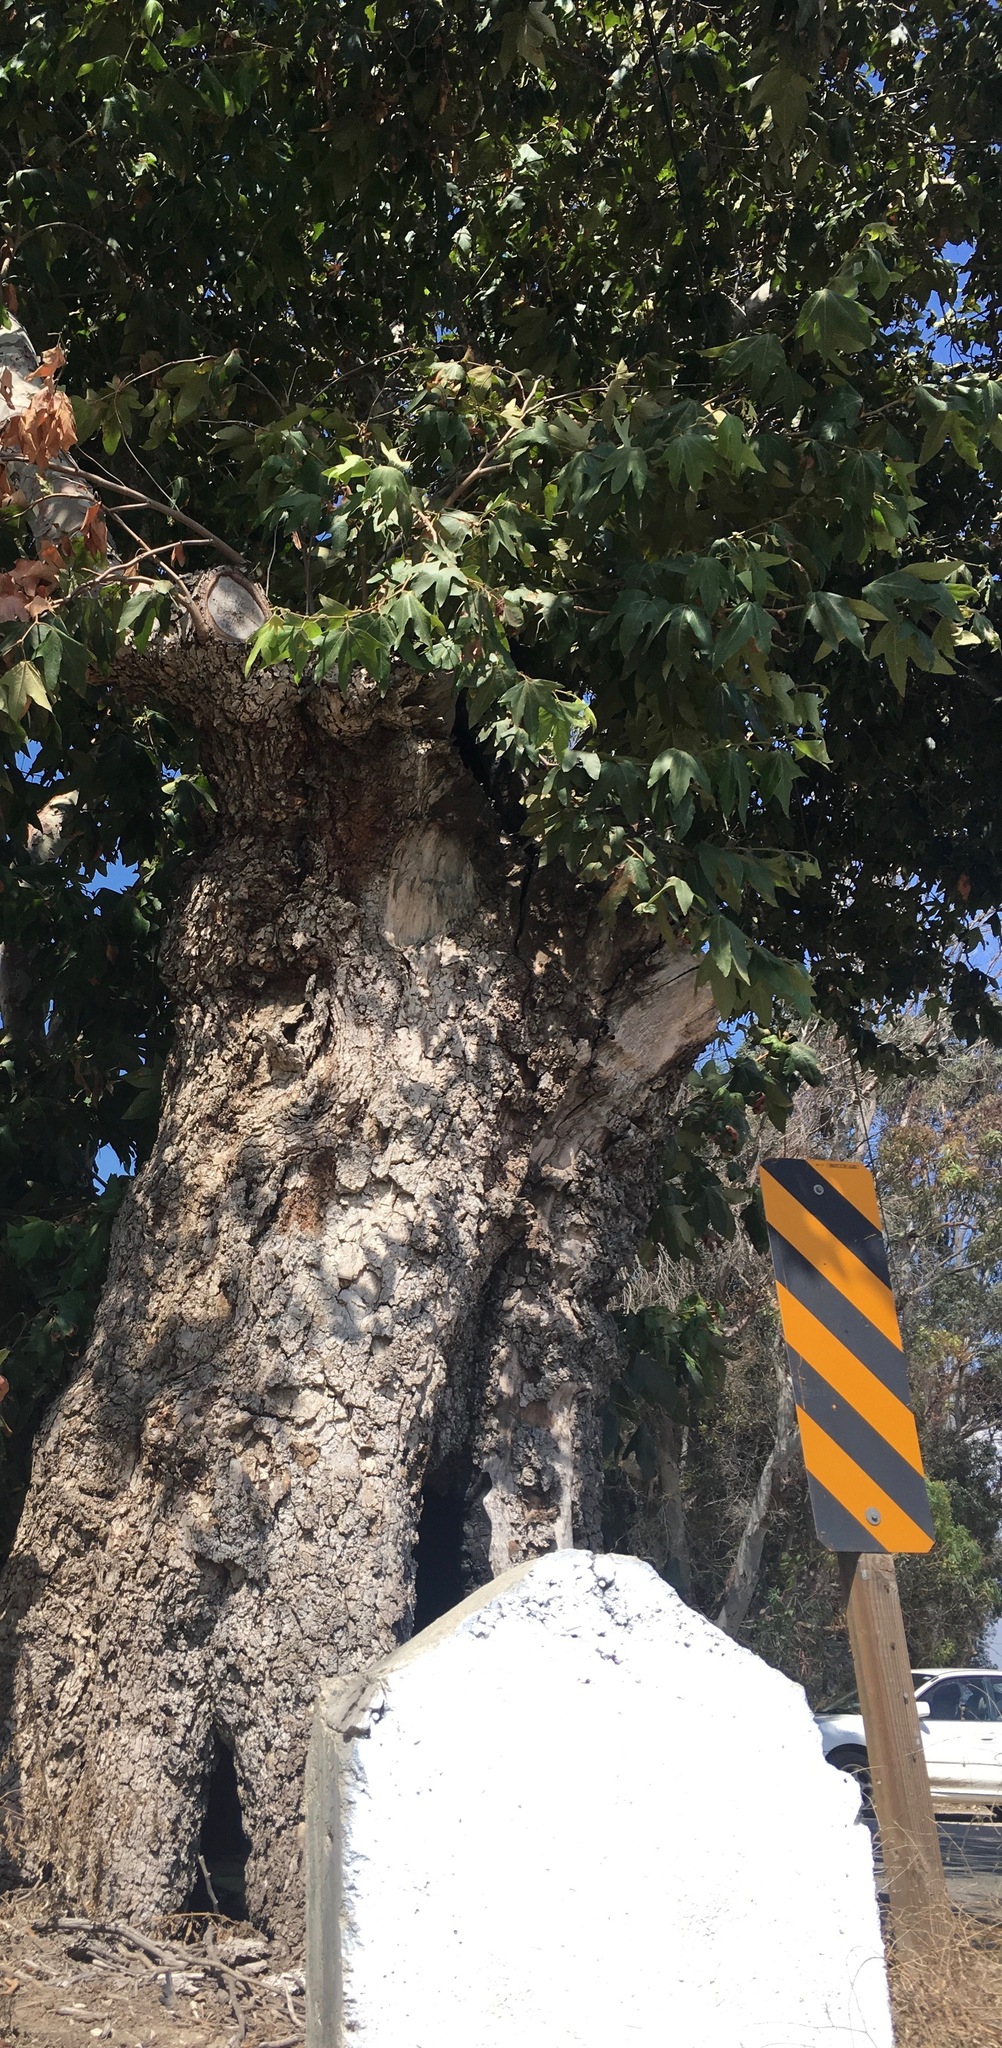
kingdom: Plantae
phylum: Tracheophyta
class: Magnoliopsida
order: Proteales
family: Platanaceae
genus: Platanus
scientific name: Platanus racemosa
